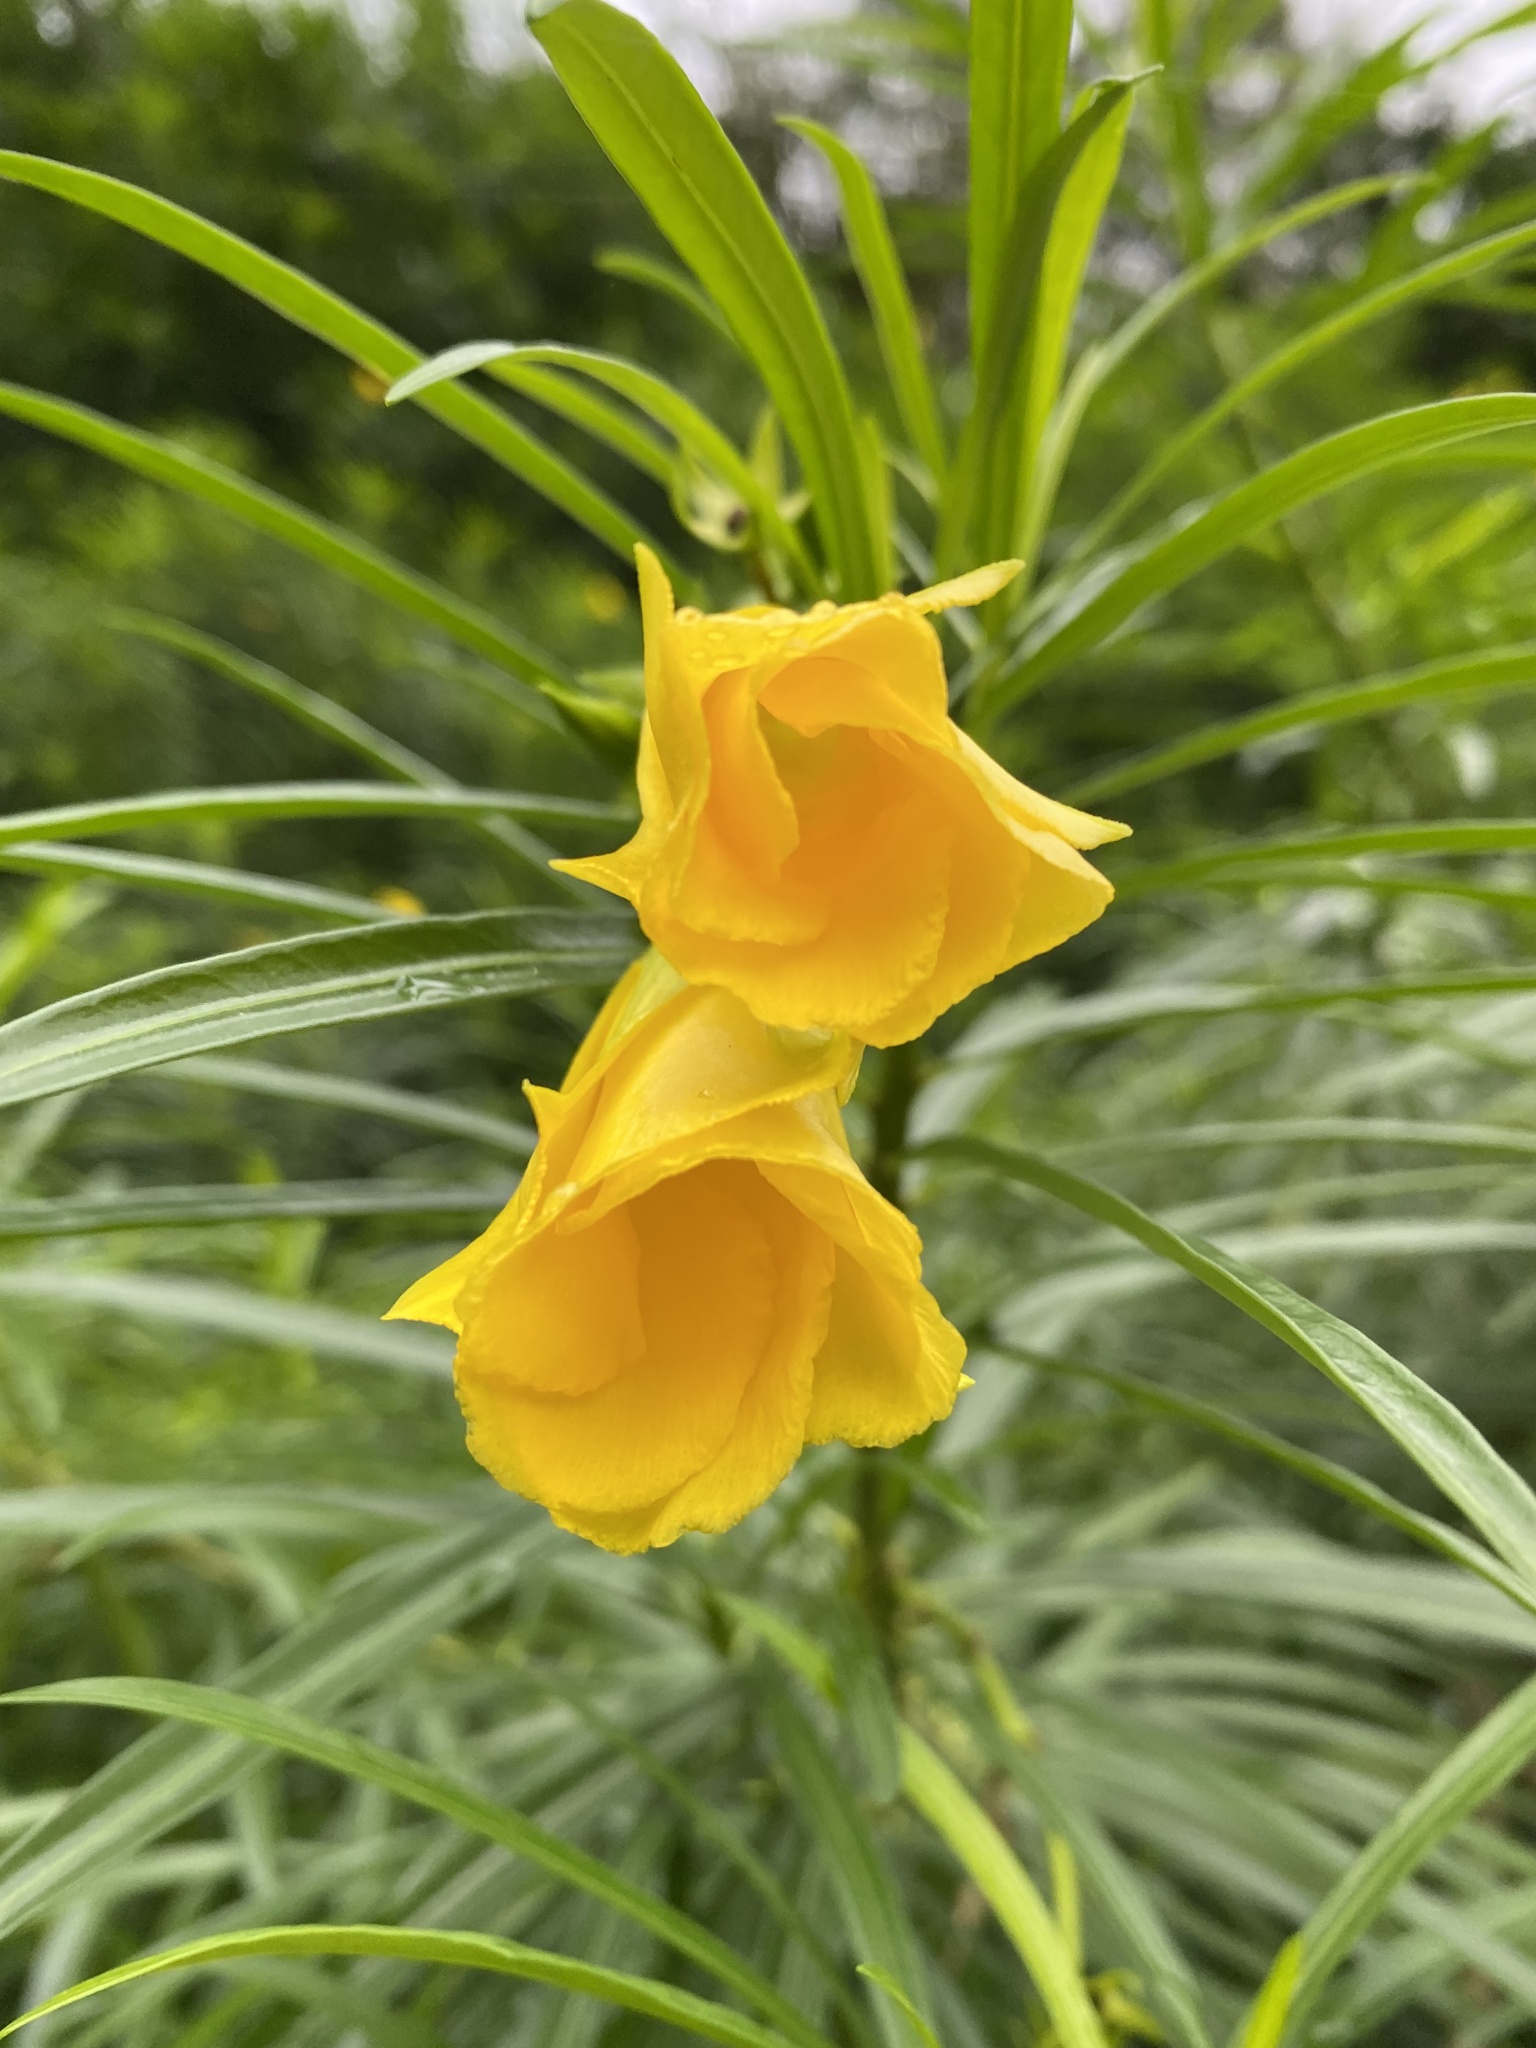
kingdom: Plantae
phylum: Tracheophyta
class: Magnoliopsida
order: Gentianales
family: Apocynaceae
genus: Cascabela
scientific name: Cascabela thevetia
